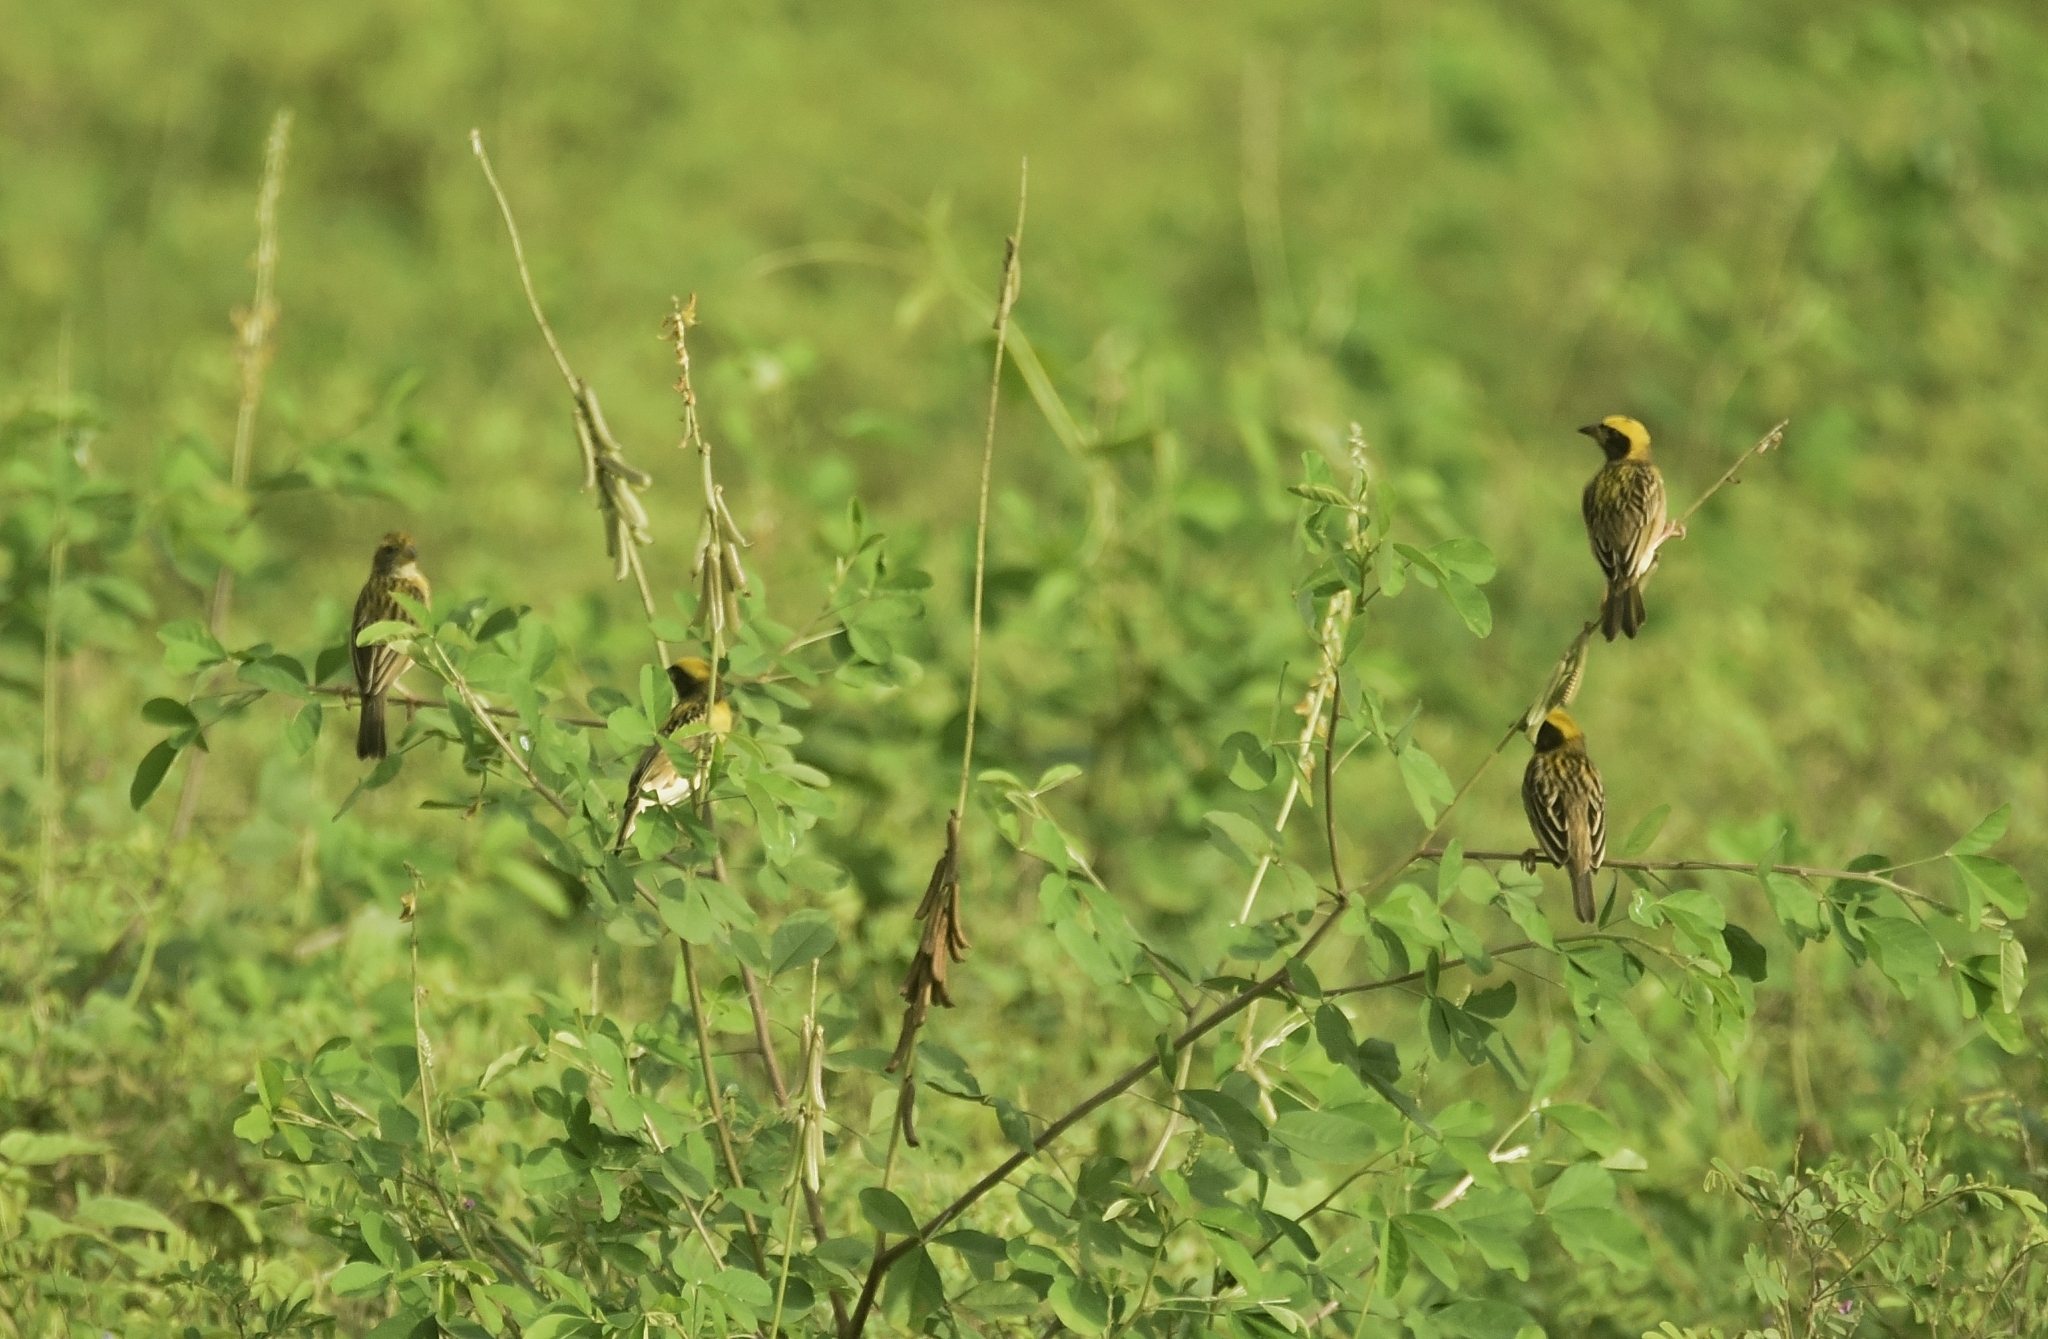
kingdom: Animalia
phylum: Chordata
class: Aves
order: Passeriformes
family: Ploceidae
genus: Ploceus
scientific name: Ploceus philippinus
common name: Baya weaver
